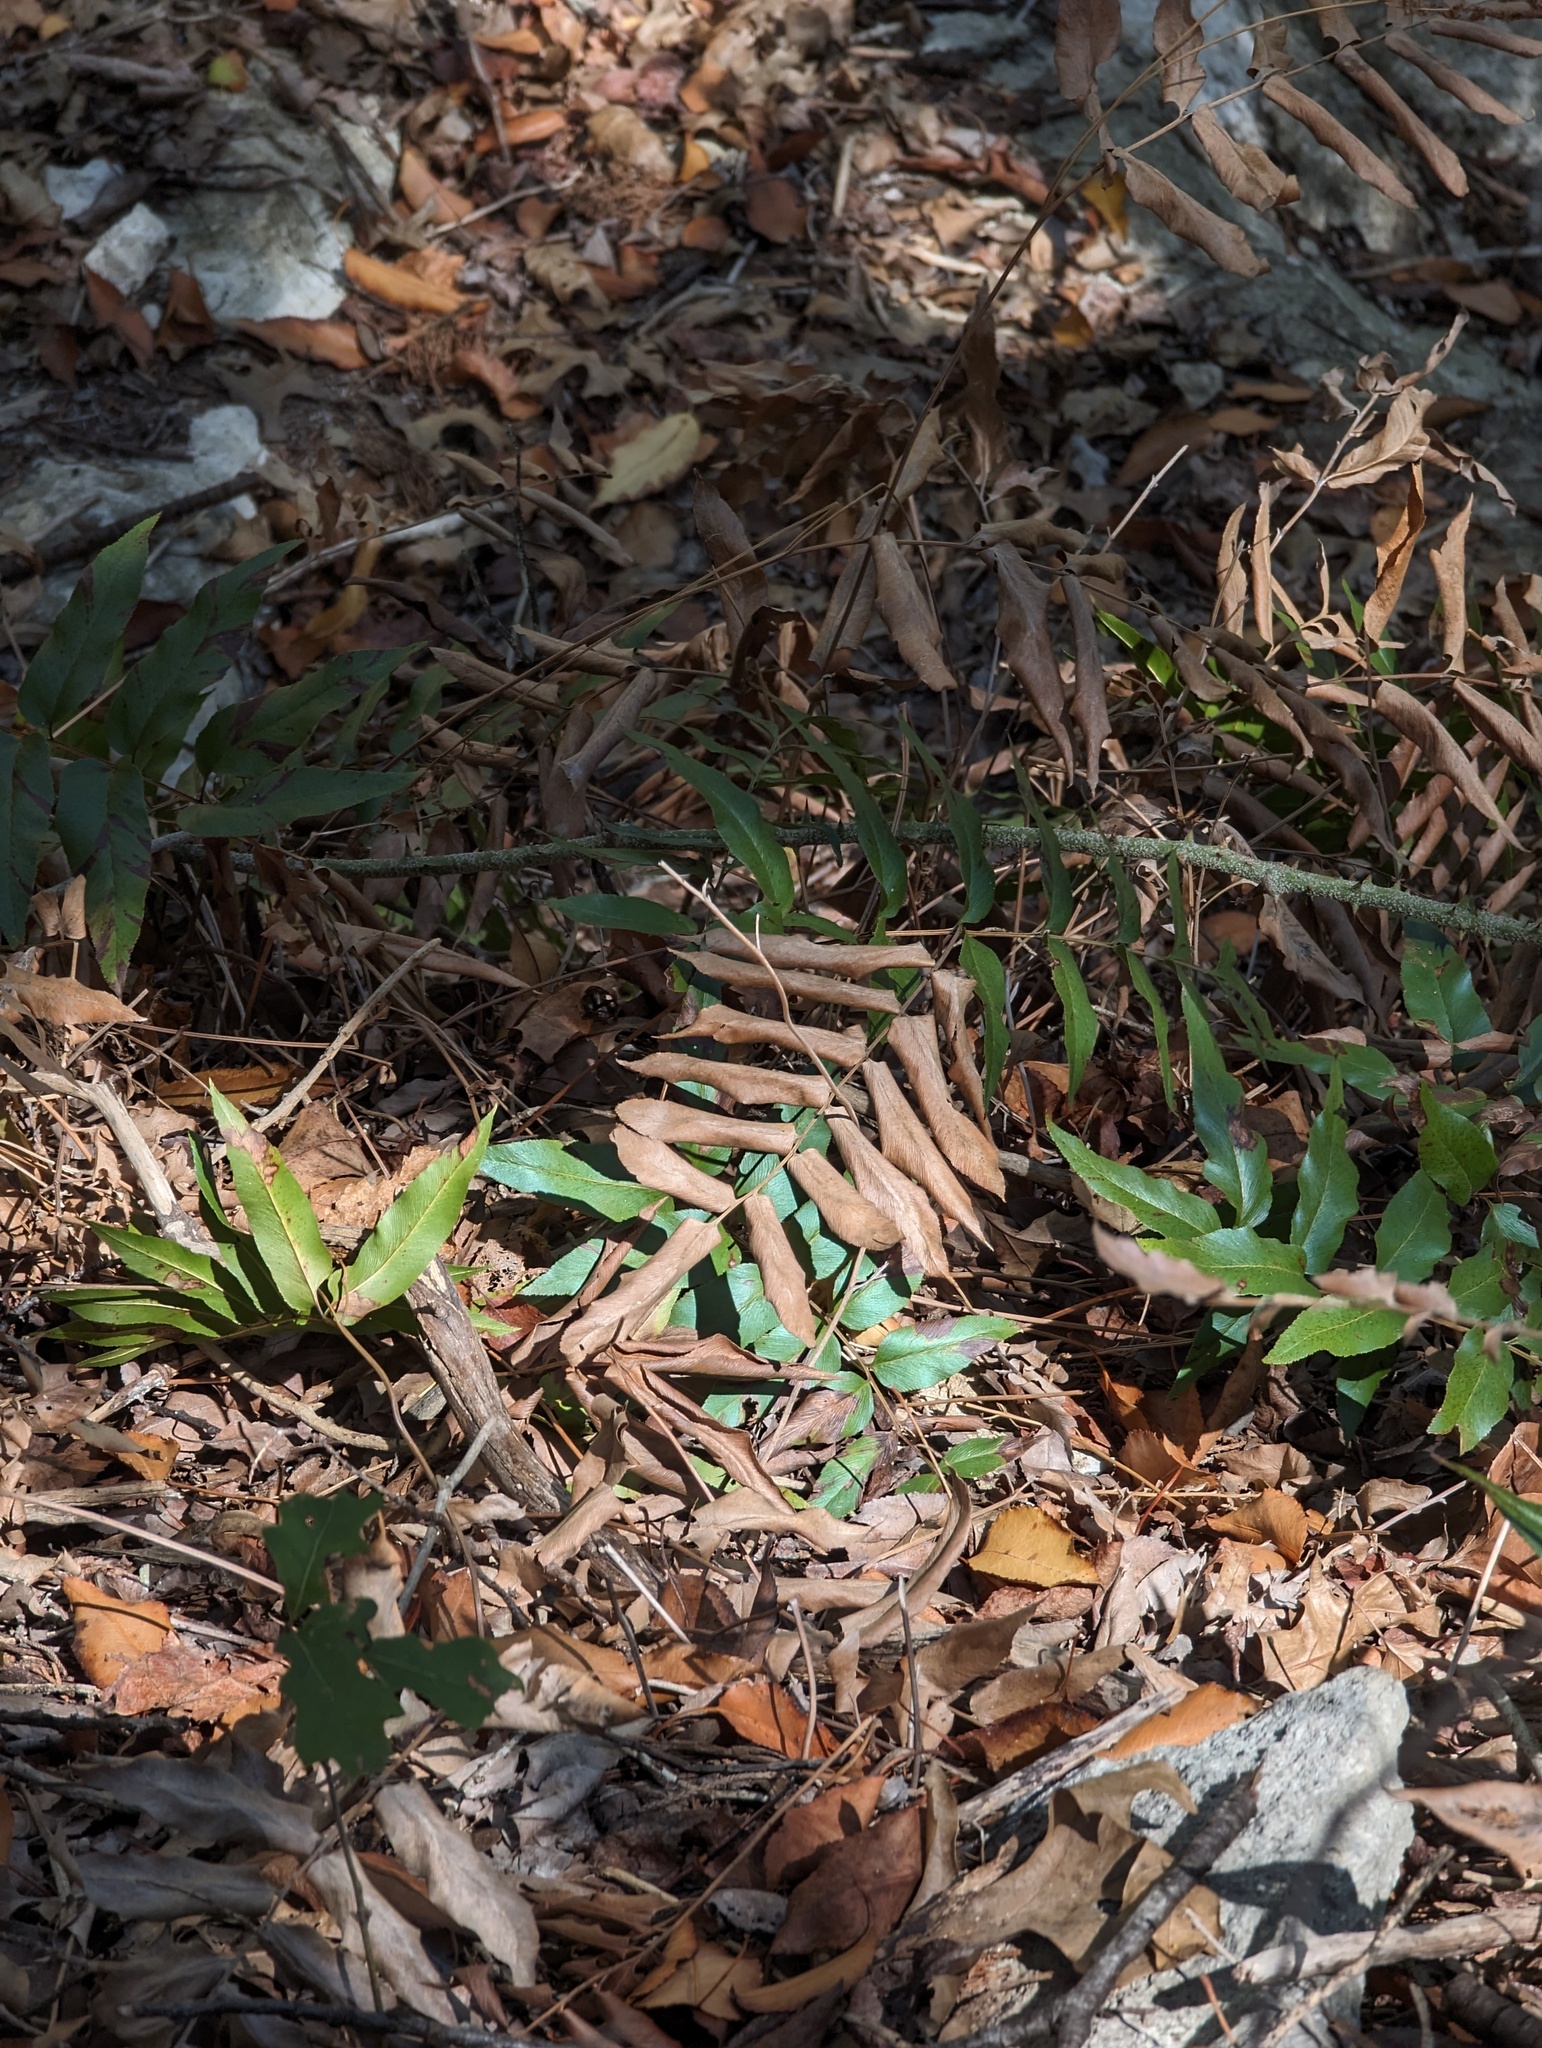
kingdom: Plantae
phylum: Tracheophyta
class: Polypodiopsida
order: Schizaeales
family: Anemiaceae
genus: Anemia
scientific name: Anemia mexicana
